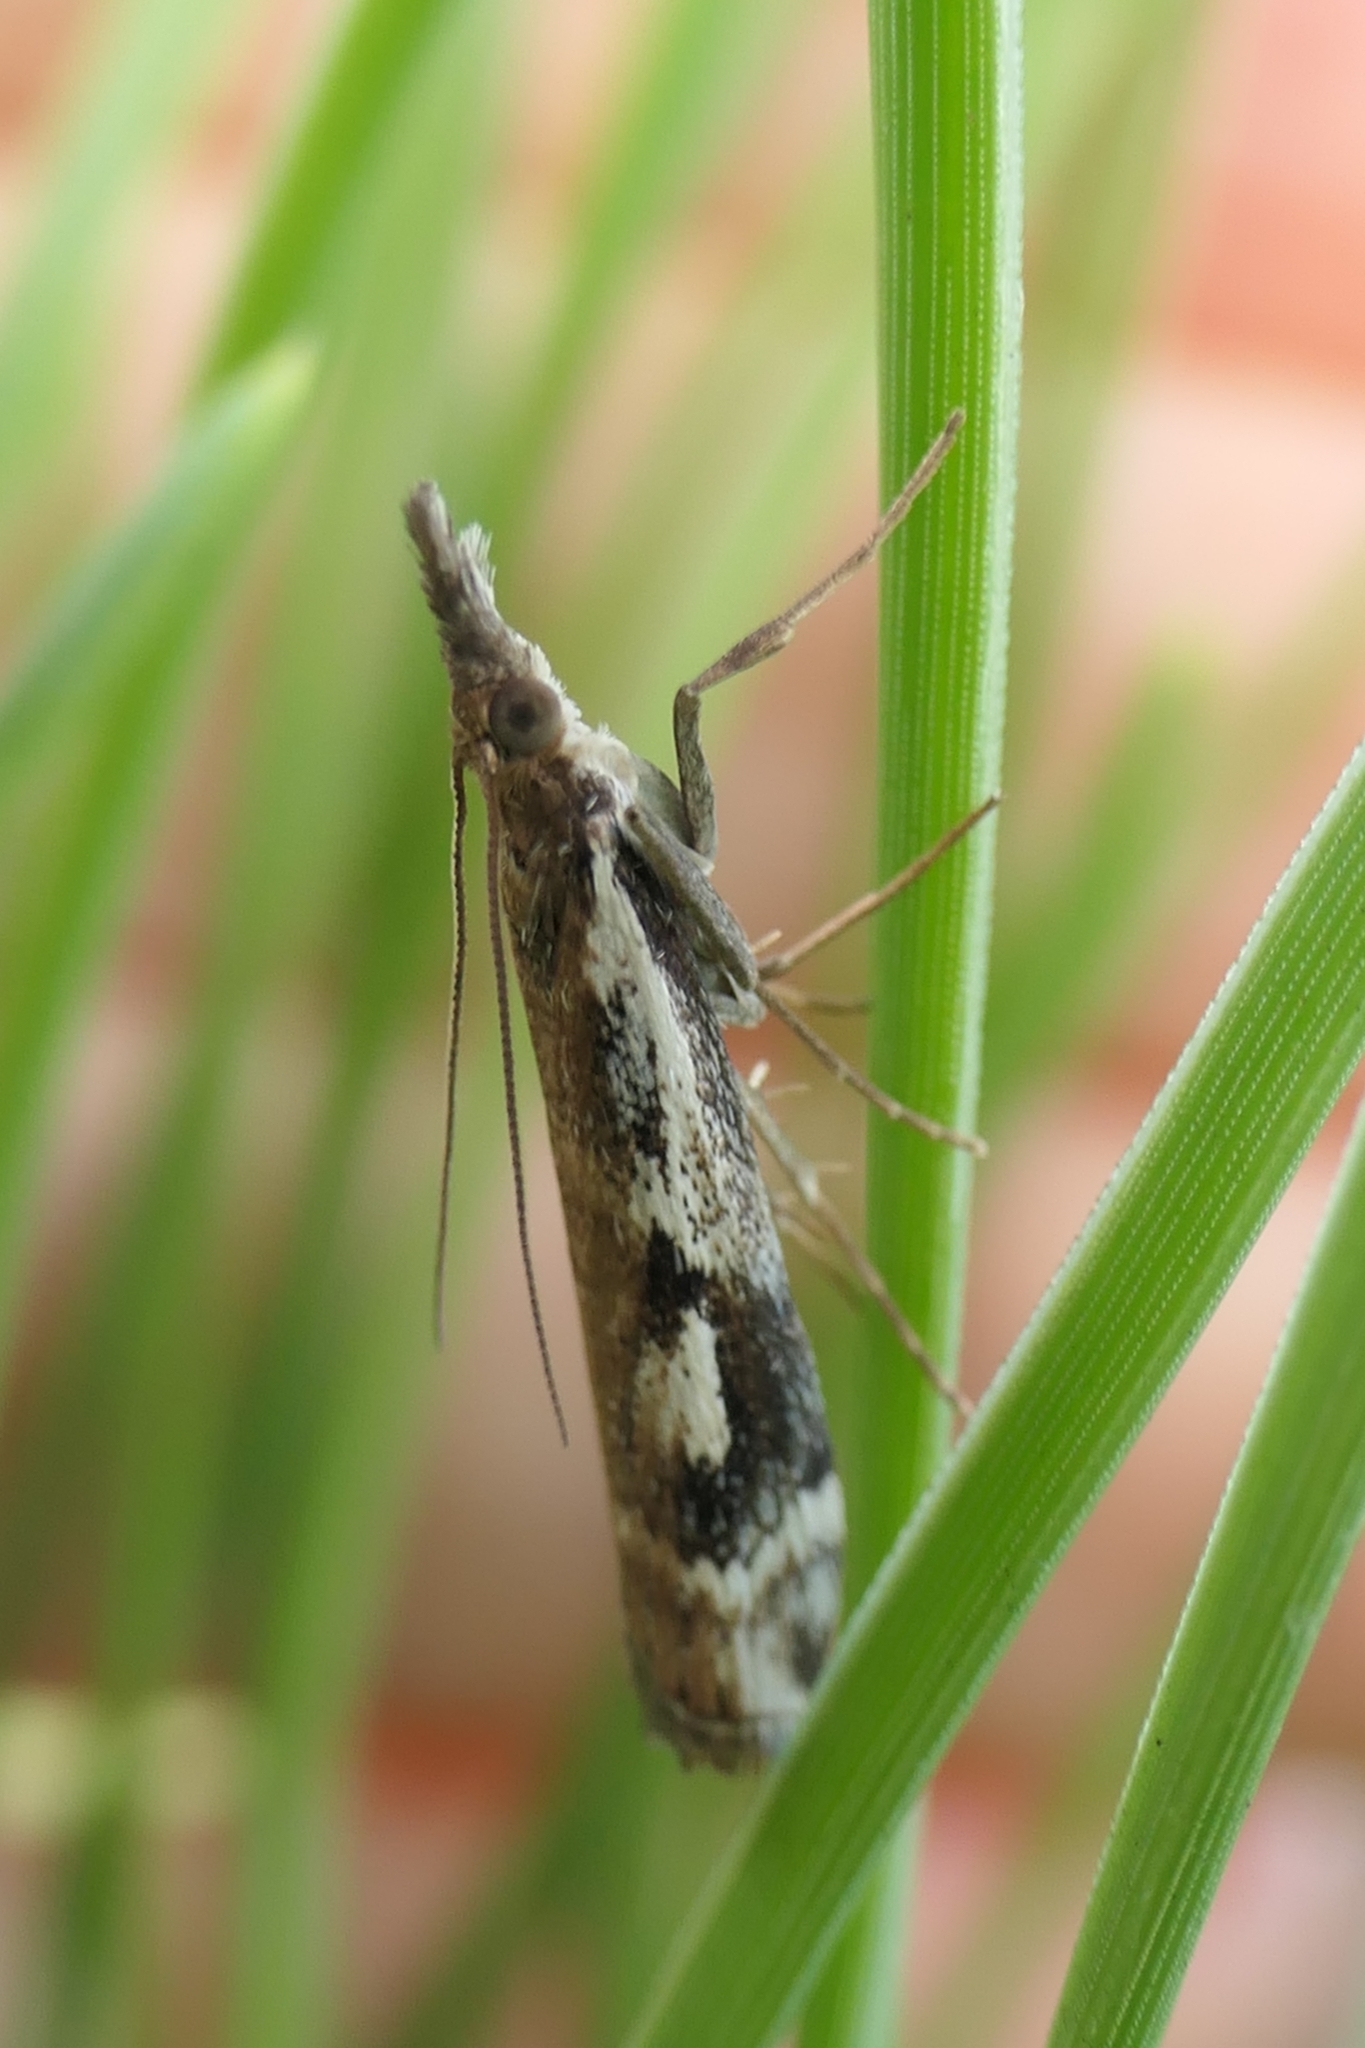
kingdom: Animalia
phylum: Arthropoda
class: Insecta
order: Lepidoptera
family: Crambidae
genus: Orocrambus
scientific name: Orocrambus vulgaris
